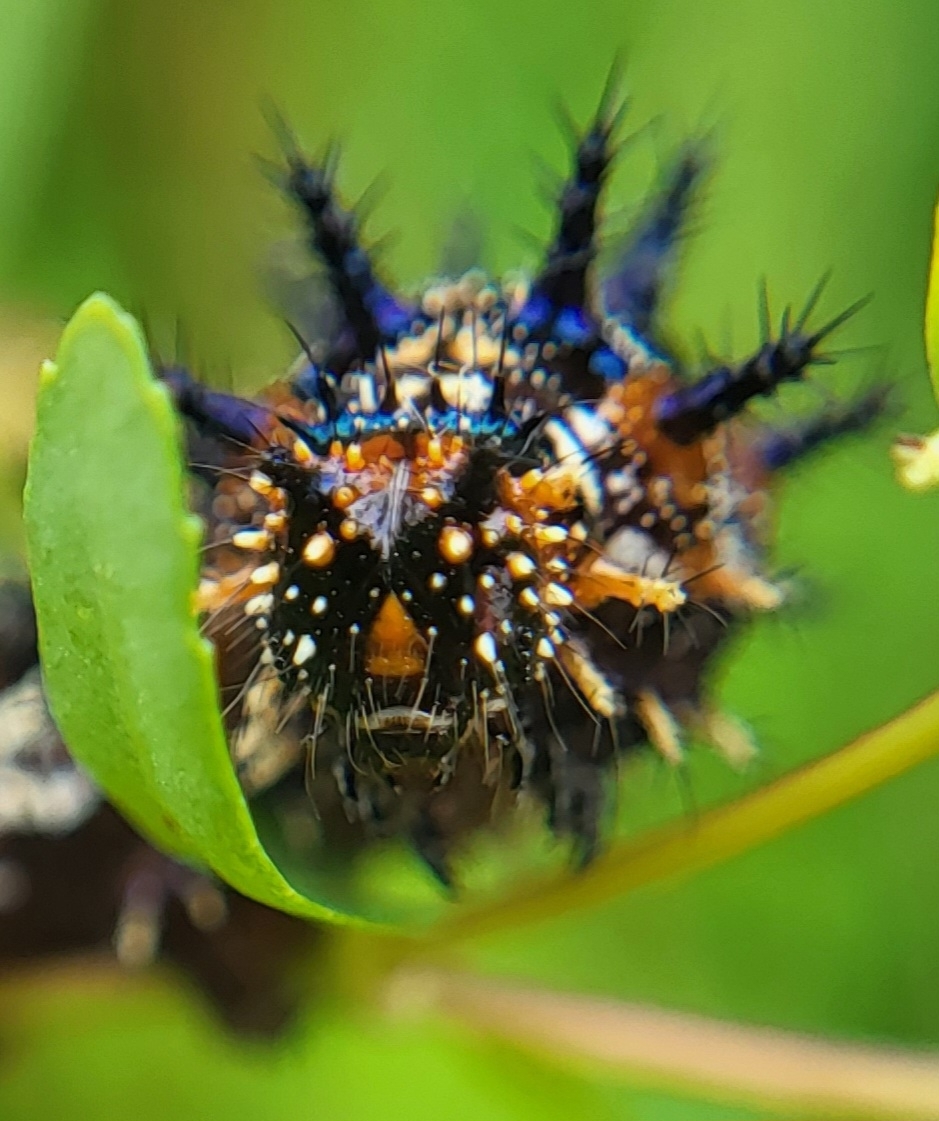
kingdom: Animalia
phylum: Arthropoda
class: Insecta
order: Lepidoptera
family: Nymphalidae
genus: Junonia
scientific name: Junonia coenia
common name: Common buckeye
